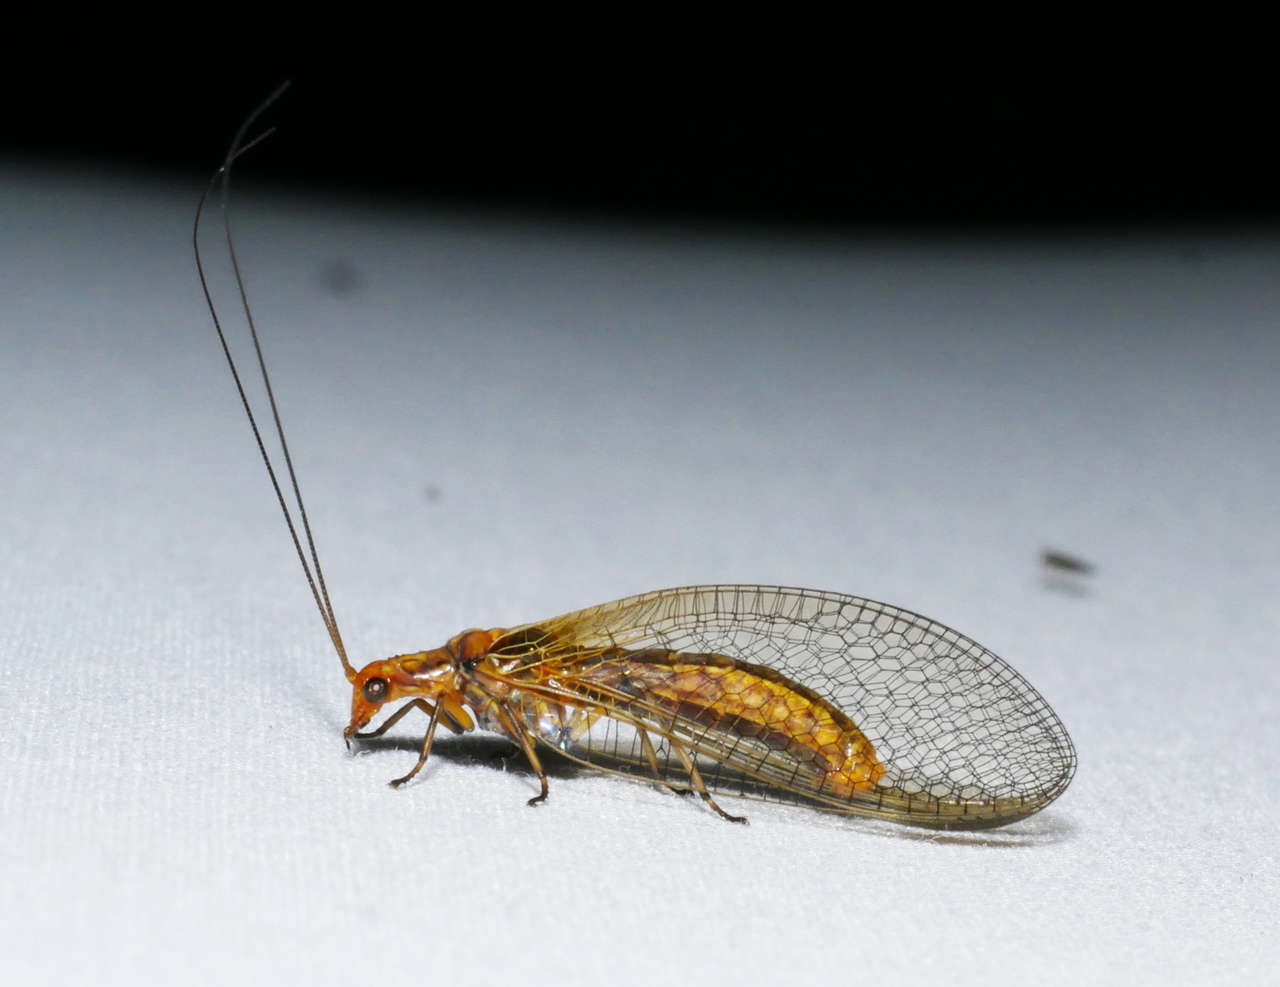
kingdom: Animalia
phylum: Arthropoda
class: Insecta
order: Neuroptera
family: Chrysopidae
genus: Dictyochrysa
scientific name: Dictyochrysa fulva
